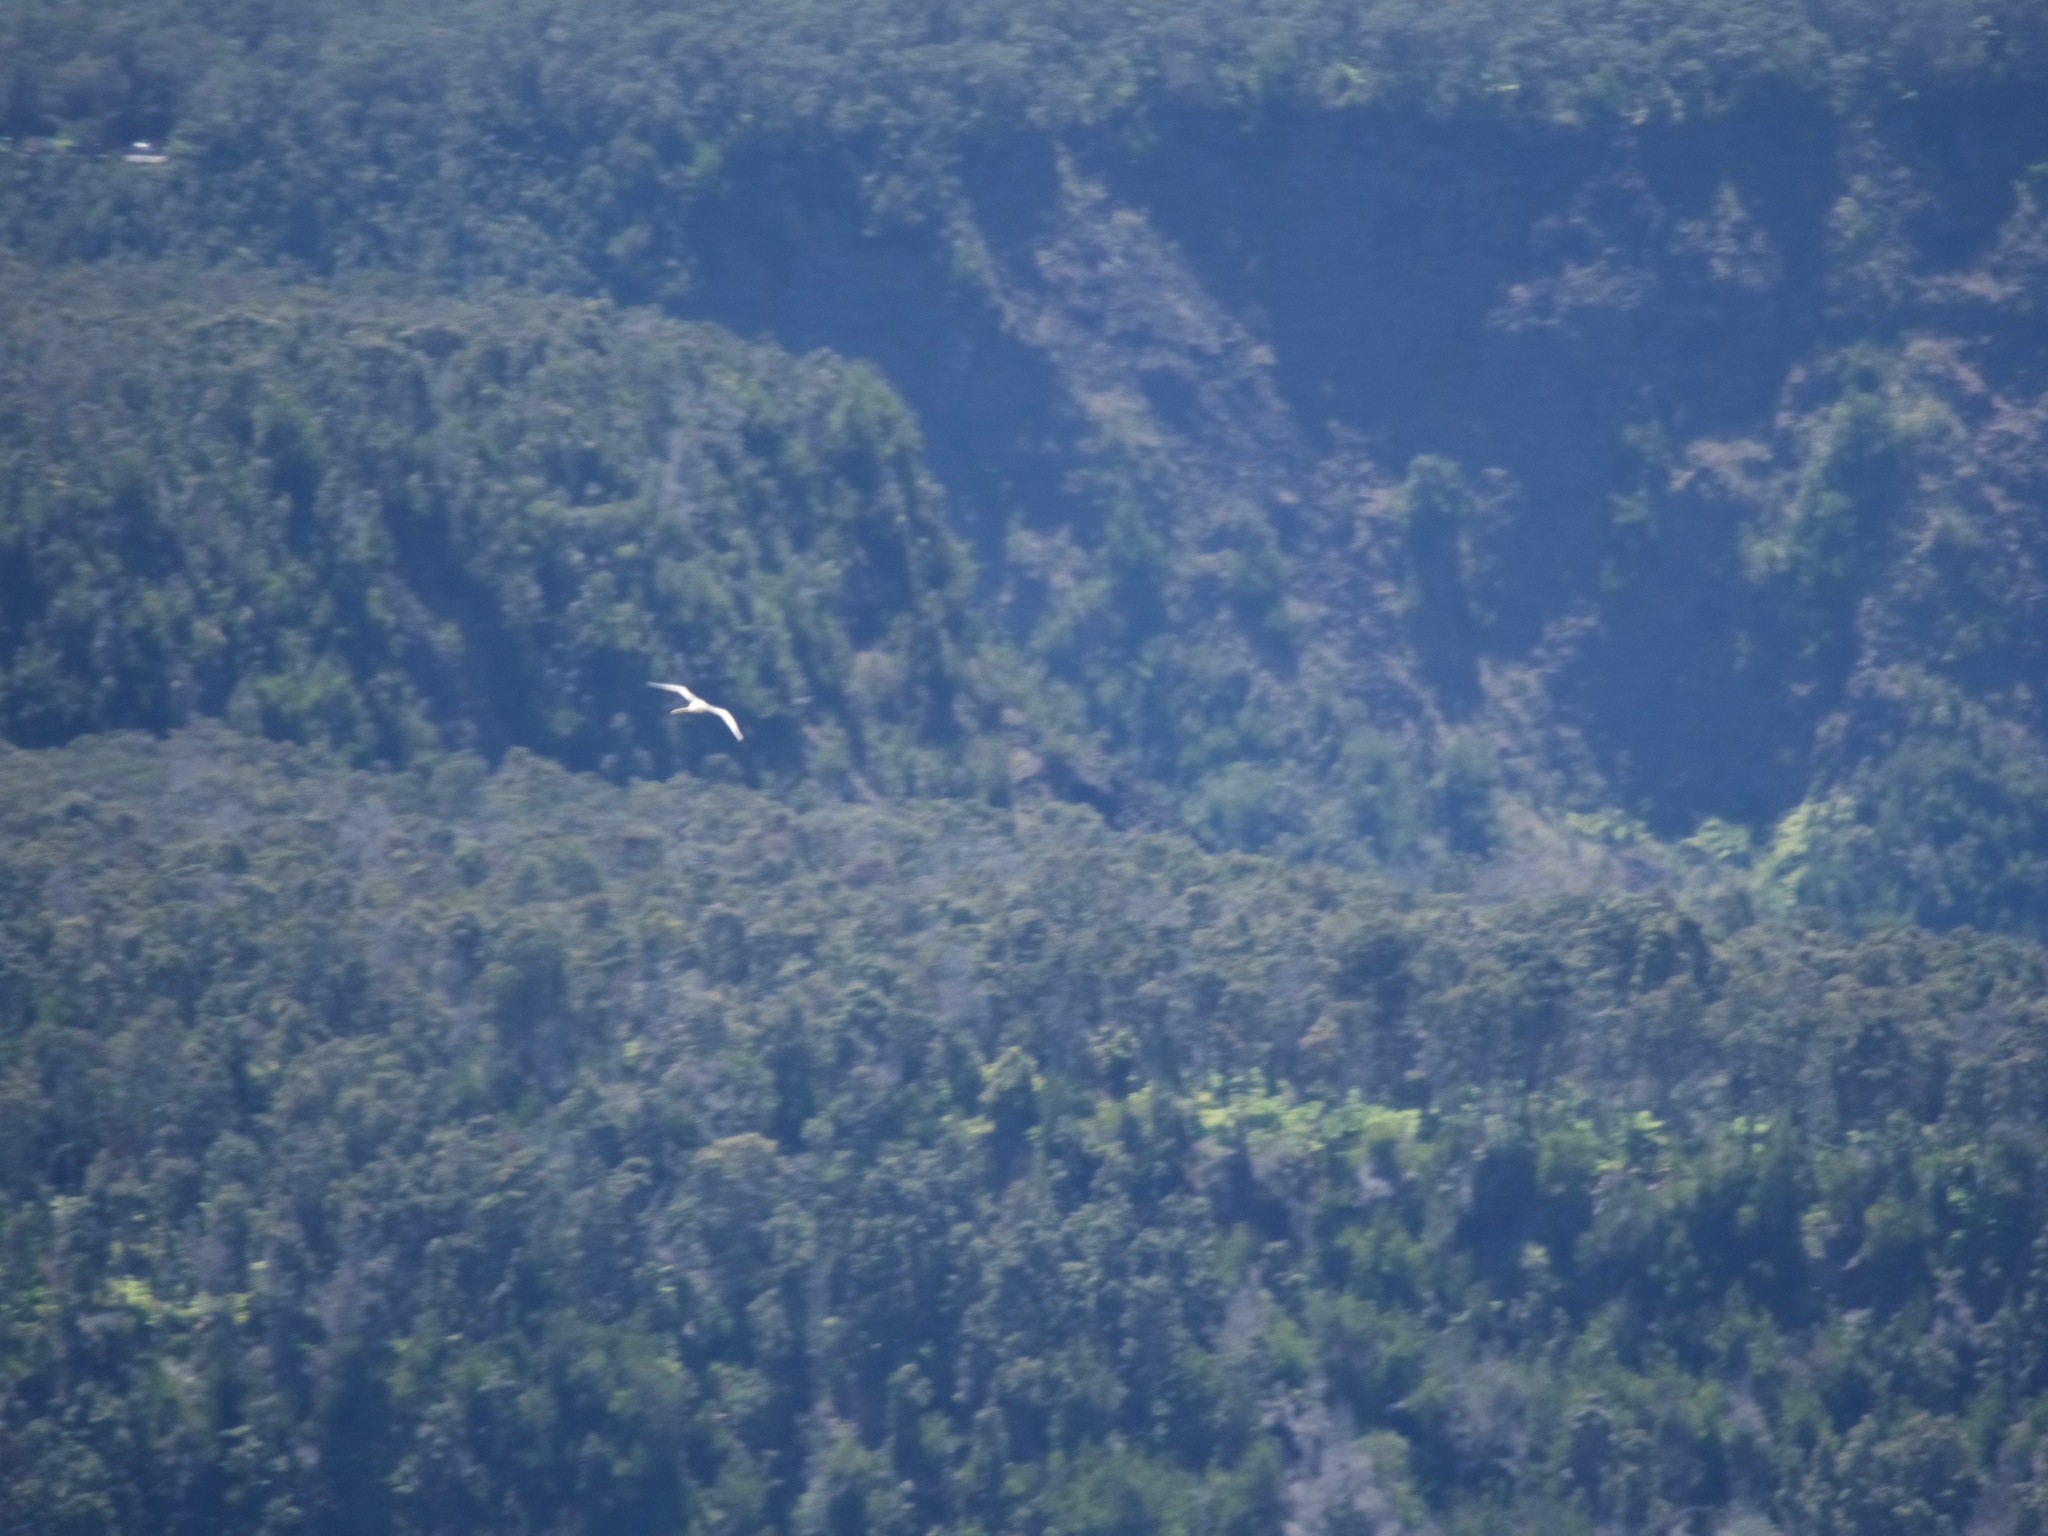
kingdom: Animalia
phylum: Chordata
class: Aves
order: Phaethontiformes
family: Phaethontidae
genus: Phaethon
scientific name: Phaethon lepturus
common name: White-tailed tropicbird
